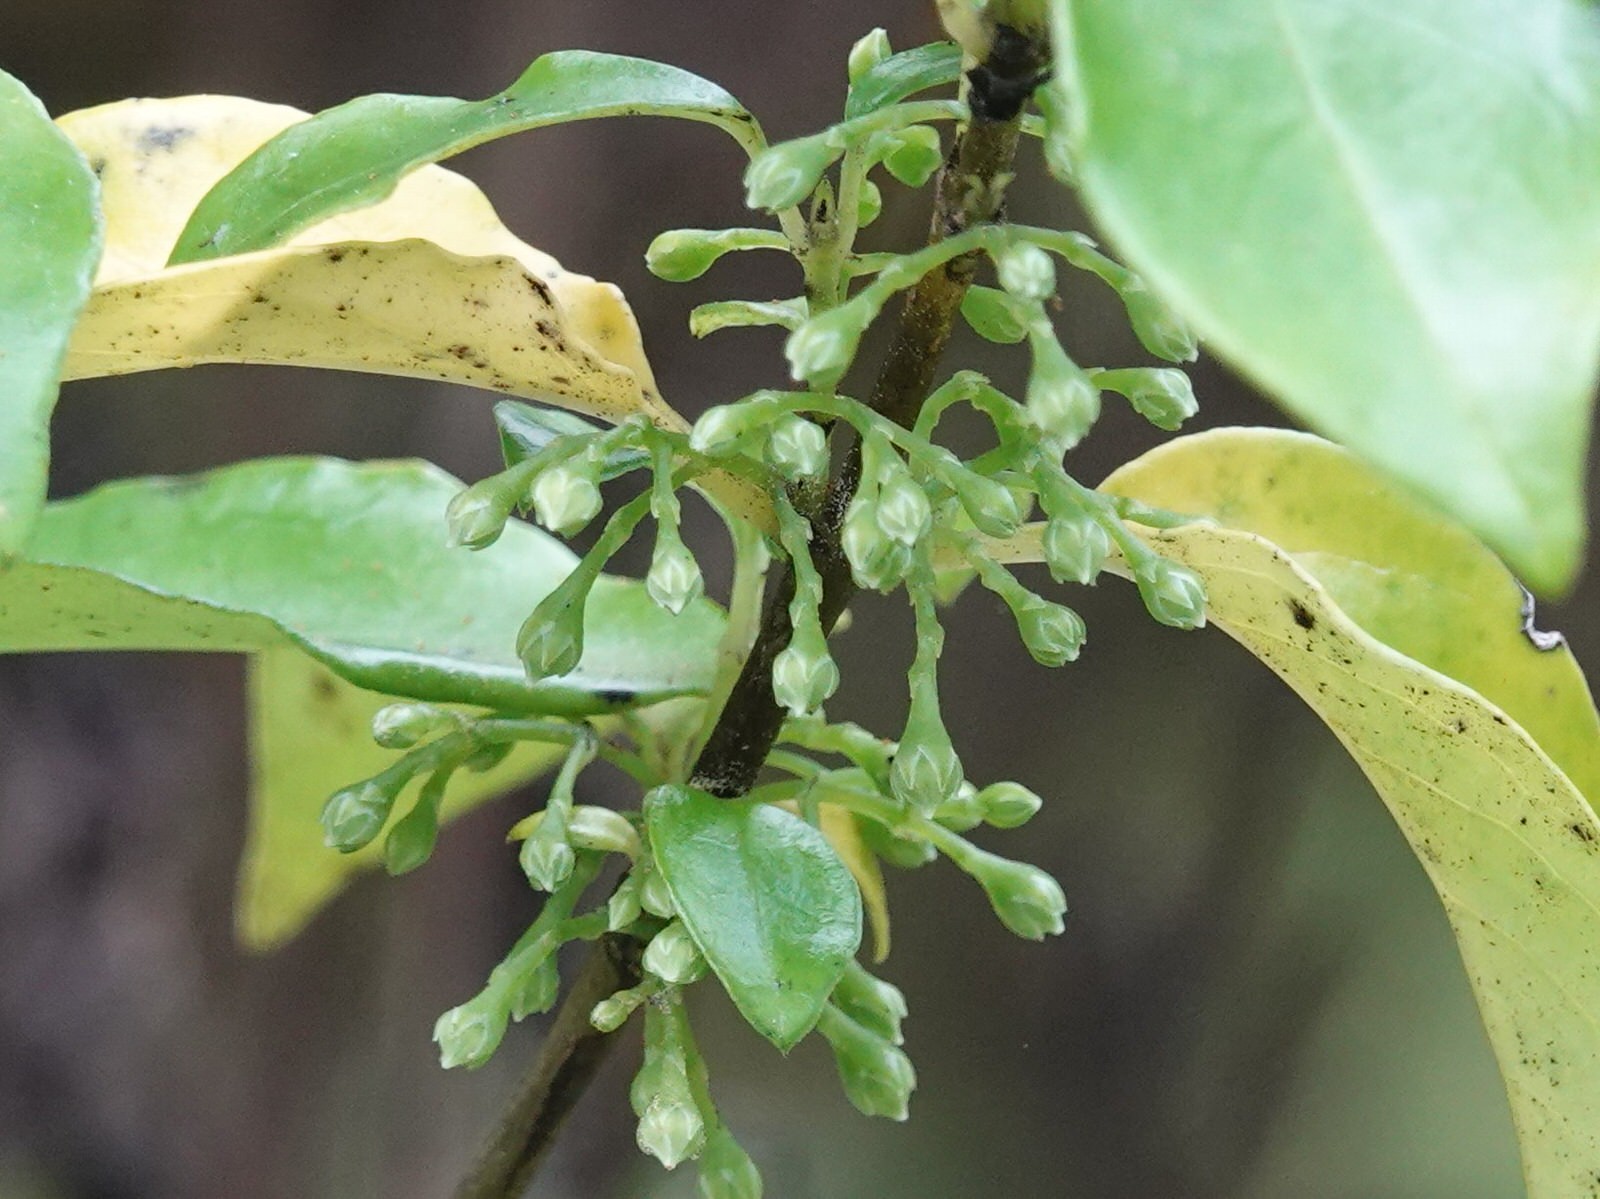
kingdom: Plantae
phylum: Tracheophyta
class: Magnoliopsida
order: Gentianales
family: Loganiaceae
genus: Geniostoma
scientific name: Geniostoma ligustrifolium
